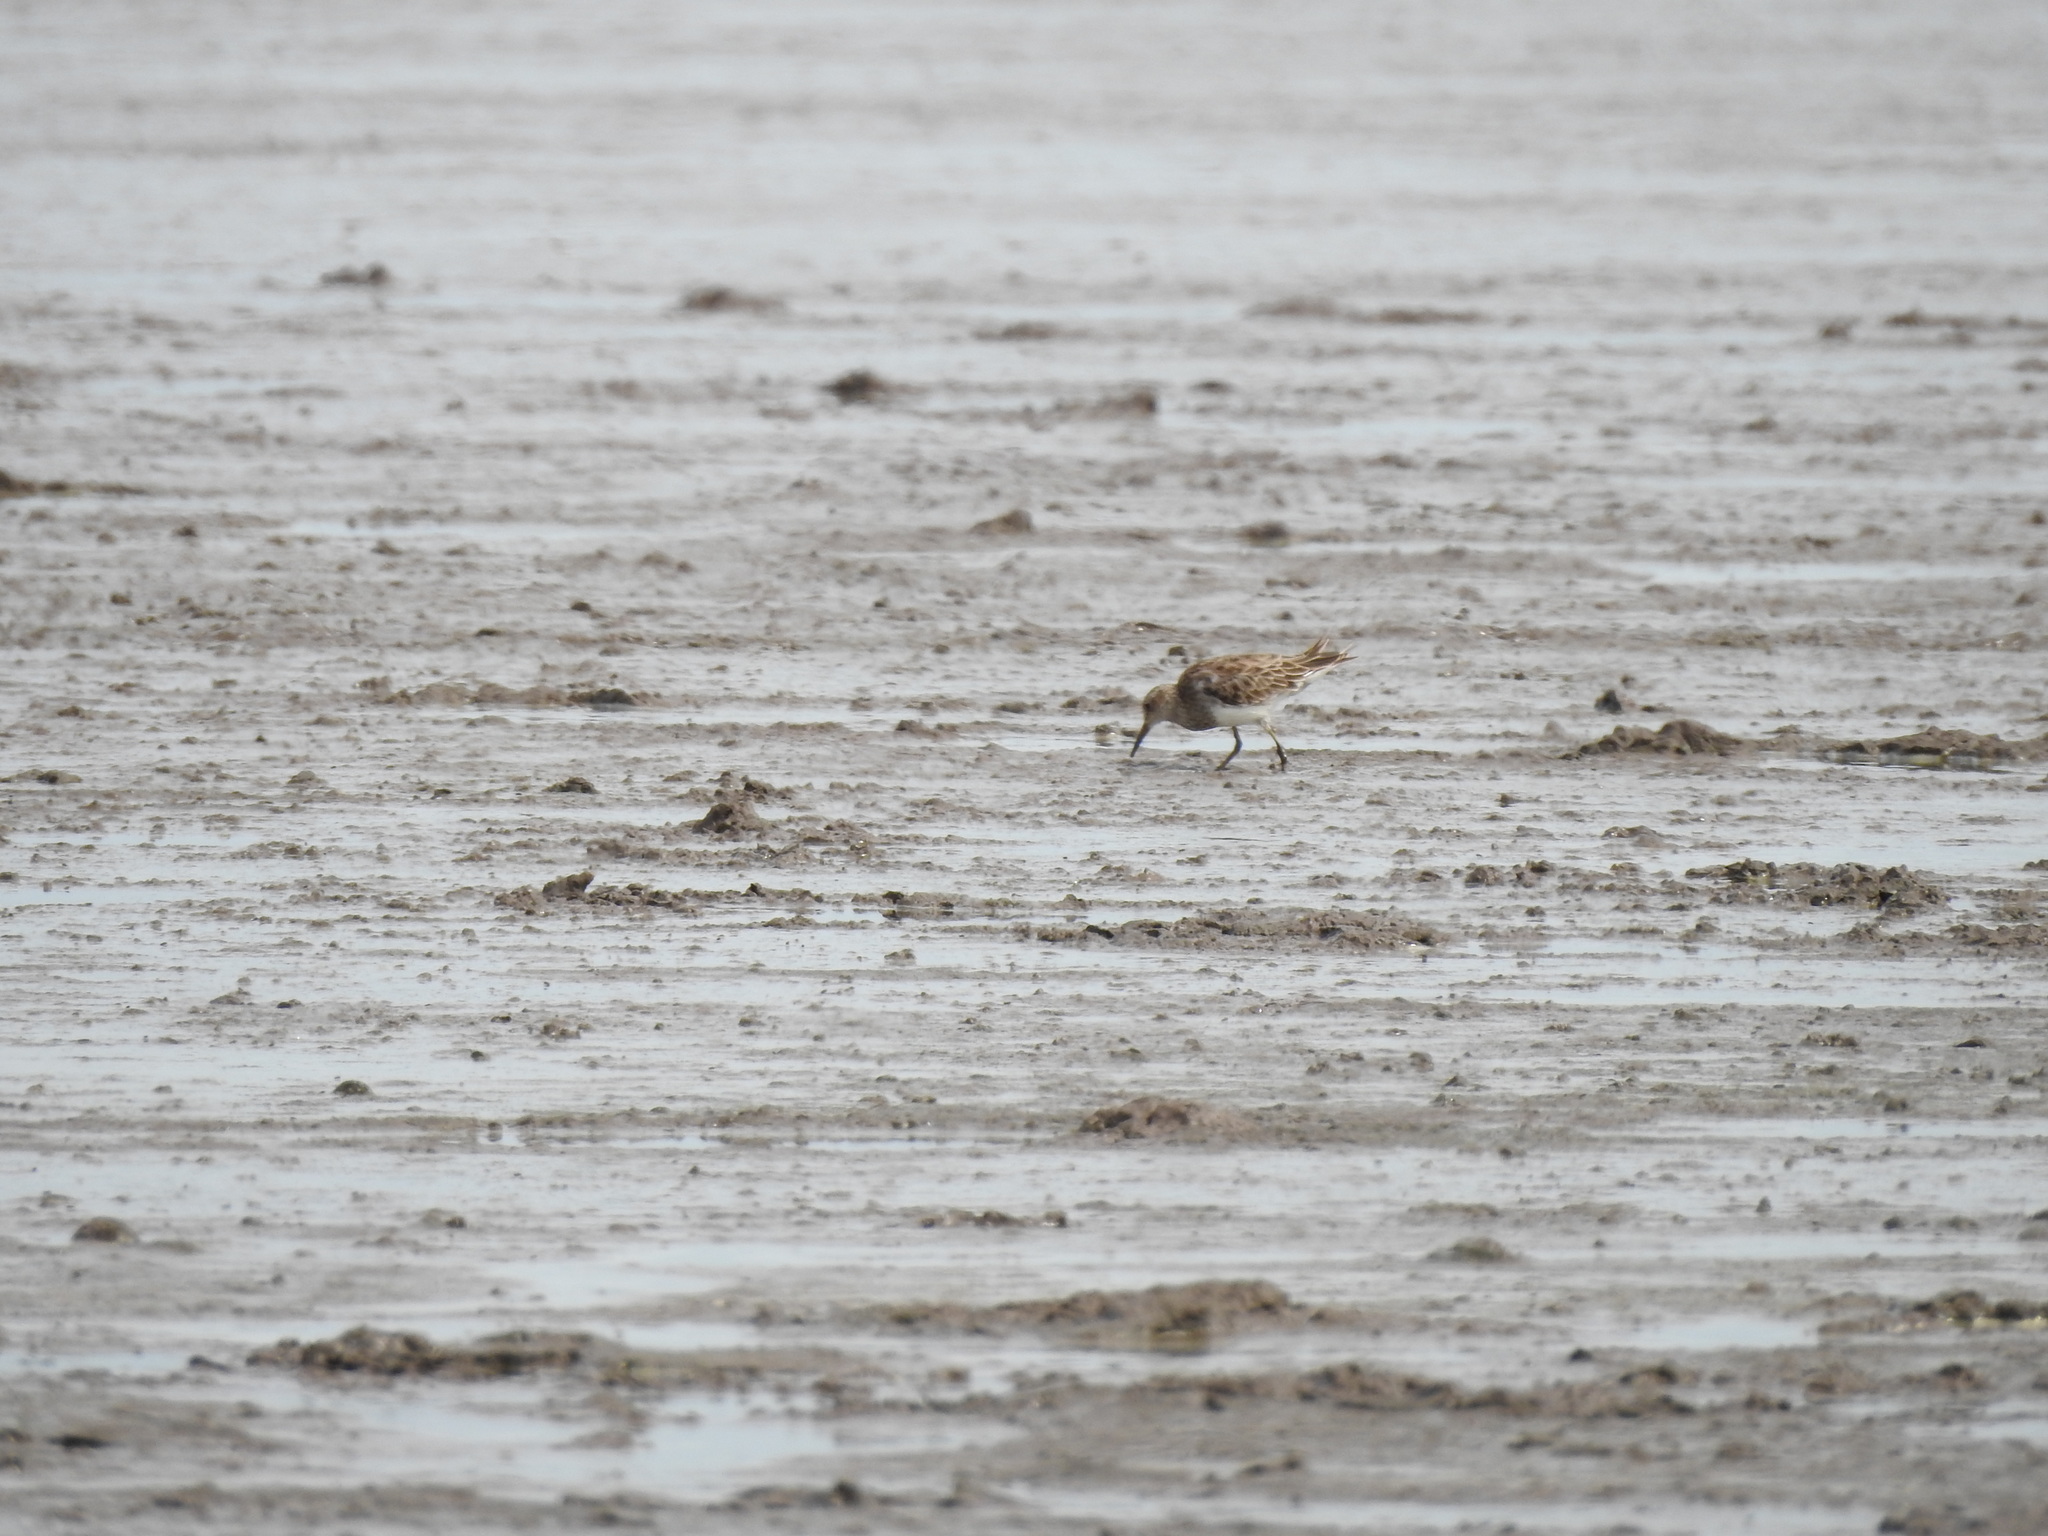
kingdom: Animalia
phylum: Chordata
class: Aves
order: Charadriiformes
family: Scolopacidae
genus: Calidris
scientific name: Calidris melanotos
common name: Pectoral sandpiper
